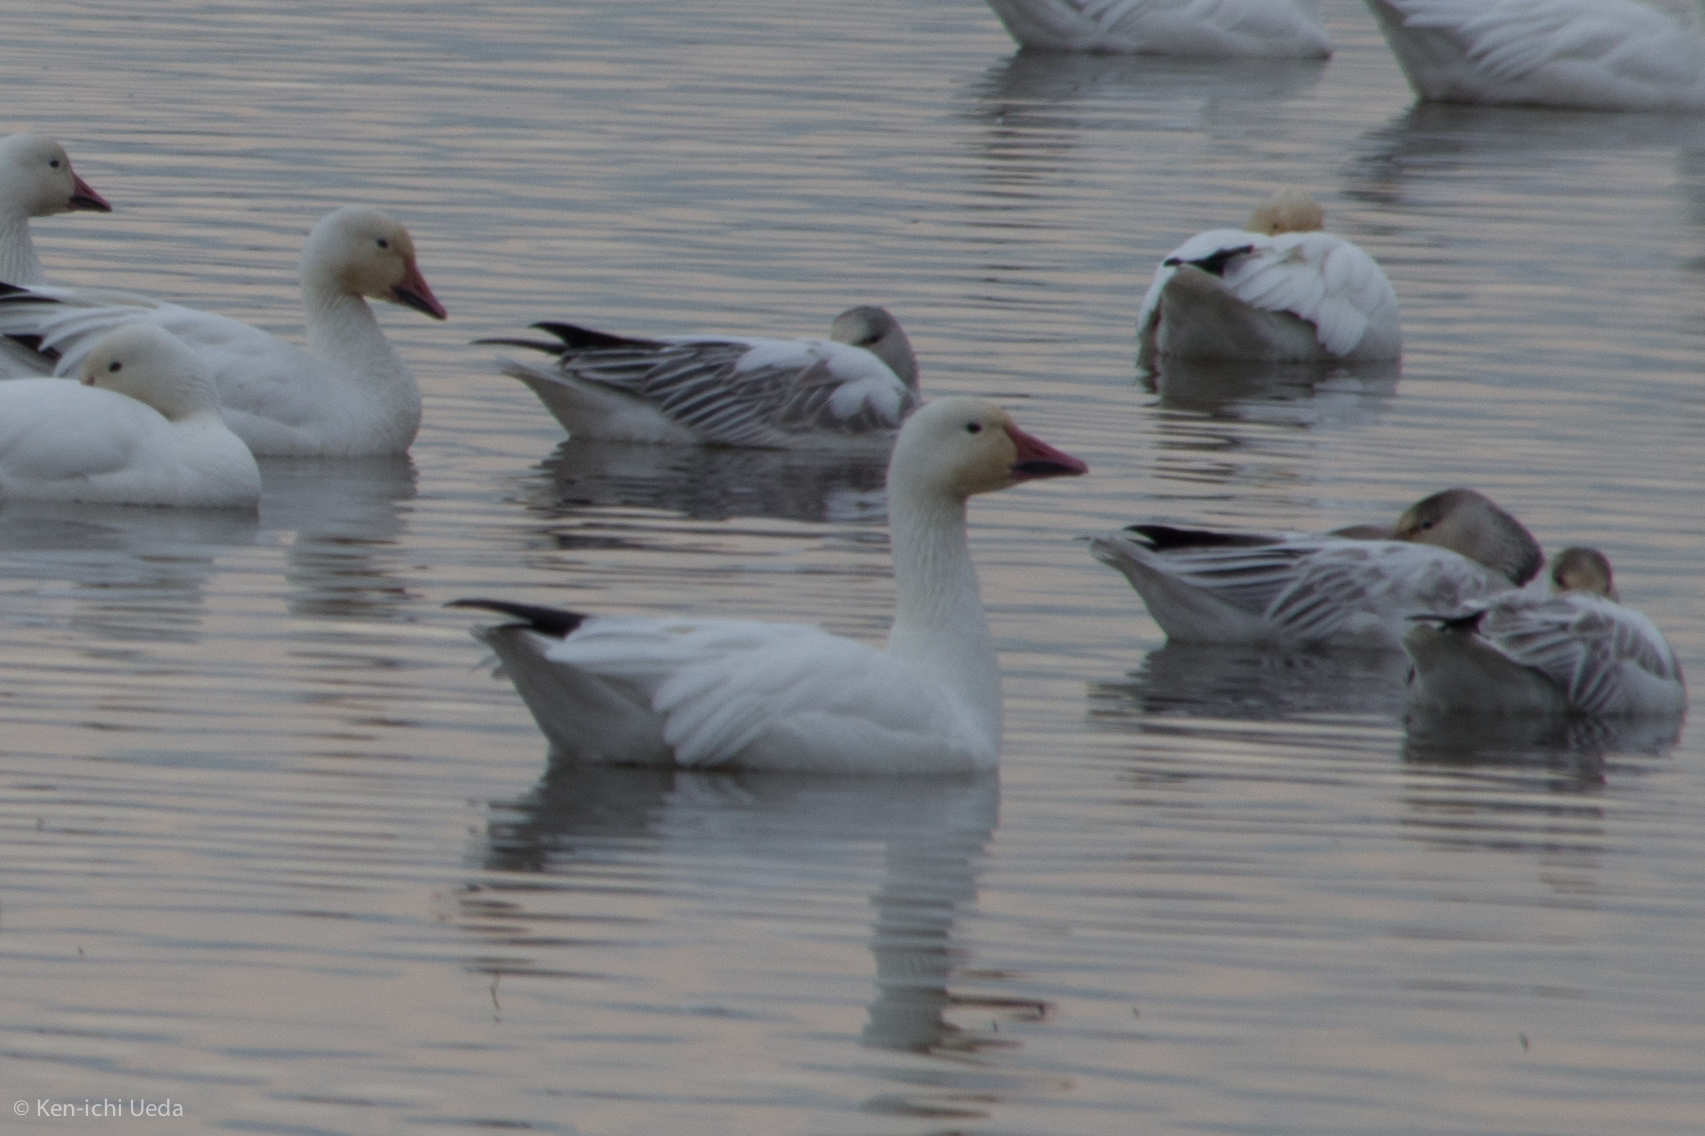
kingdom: Animalia
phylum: Chordata
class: Aves
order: Anseriformes
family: Anatidae
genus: Anser
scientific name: Anser caerulescens
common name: Snow goose
